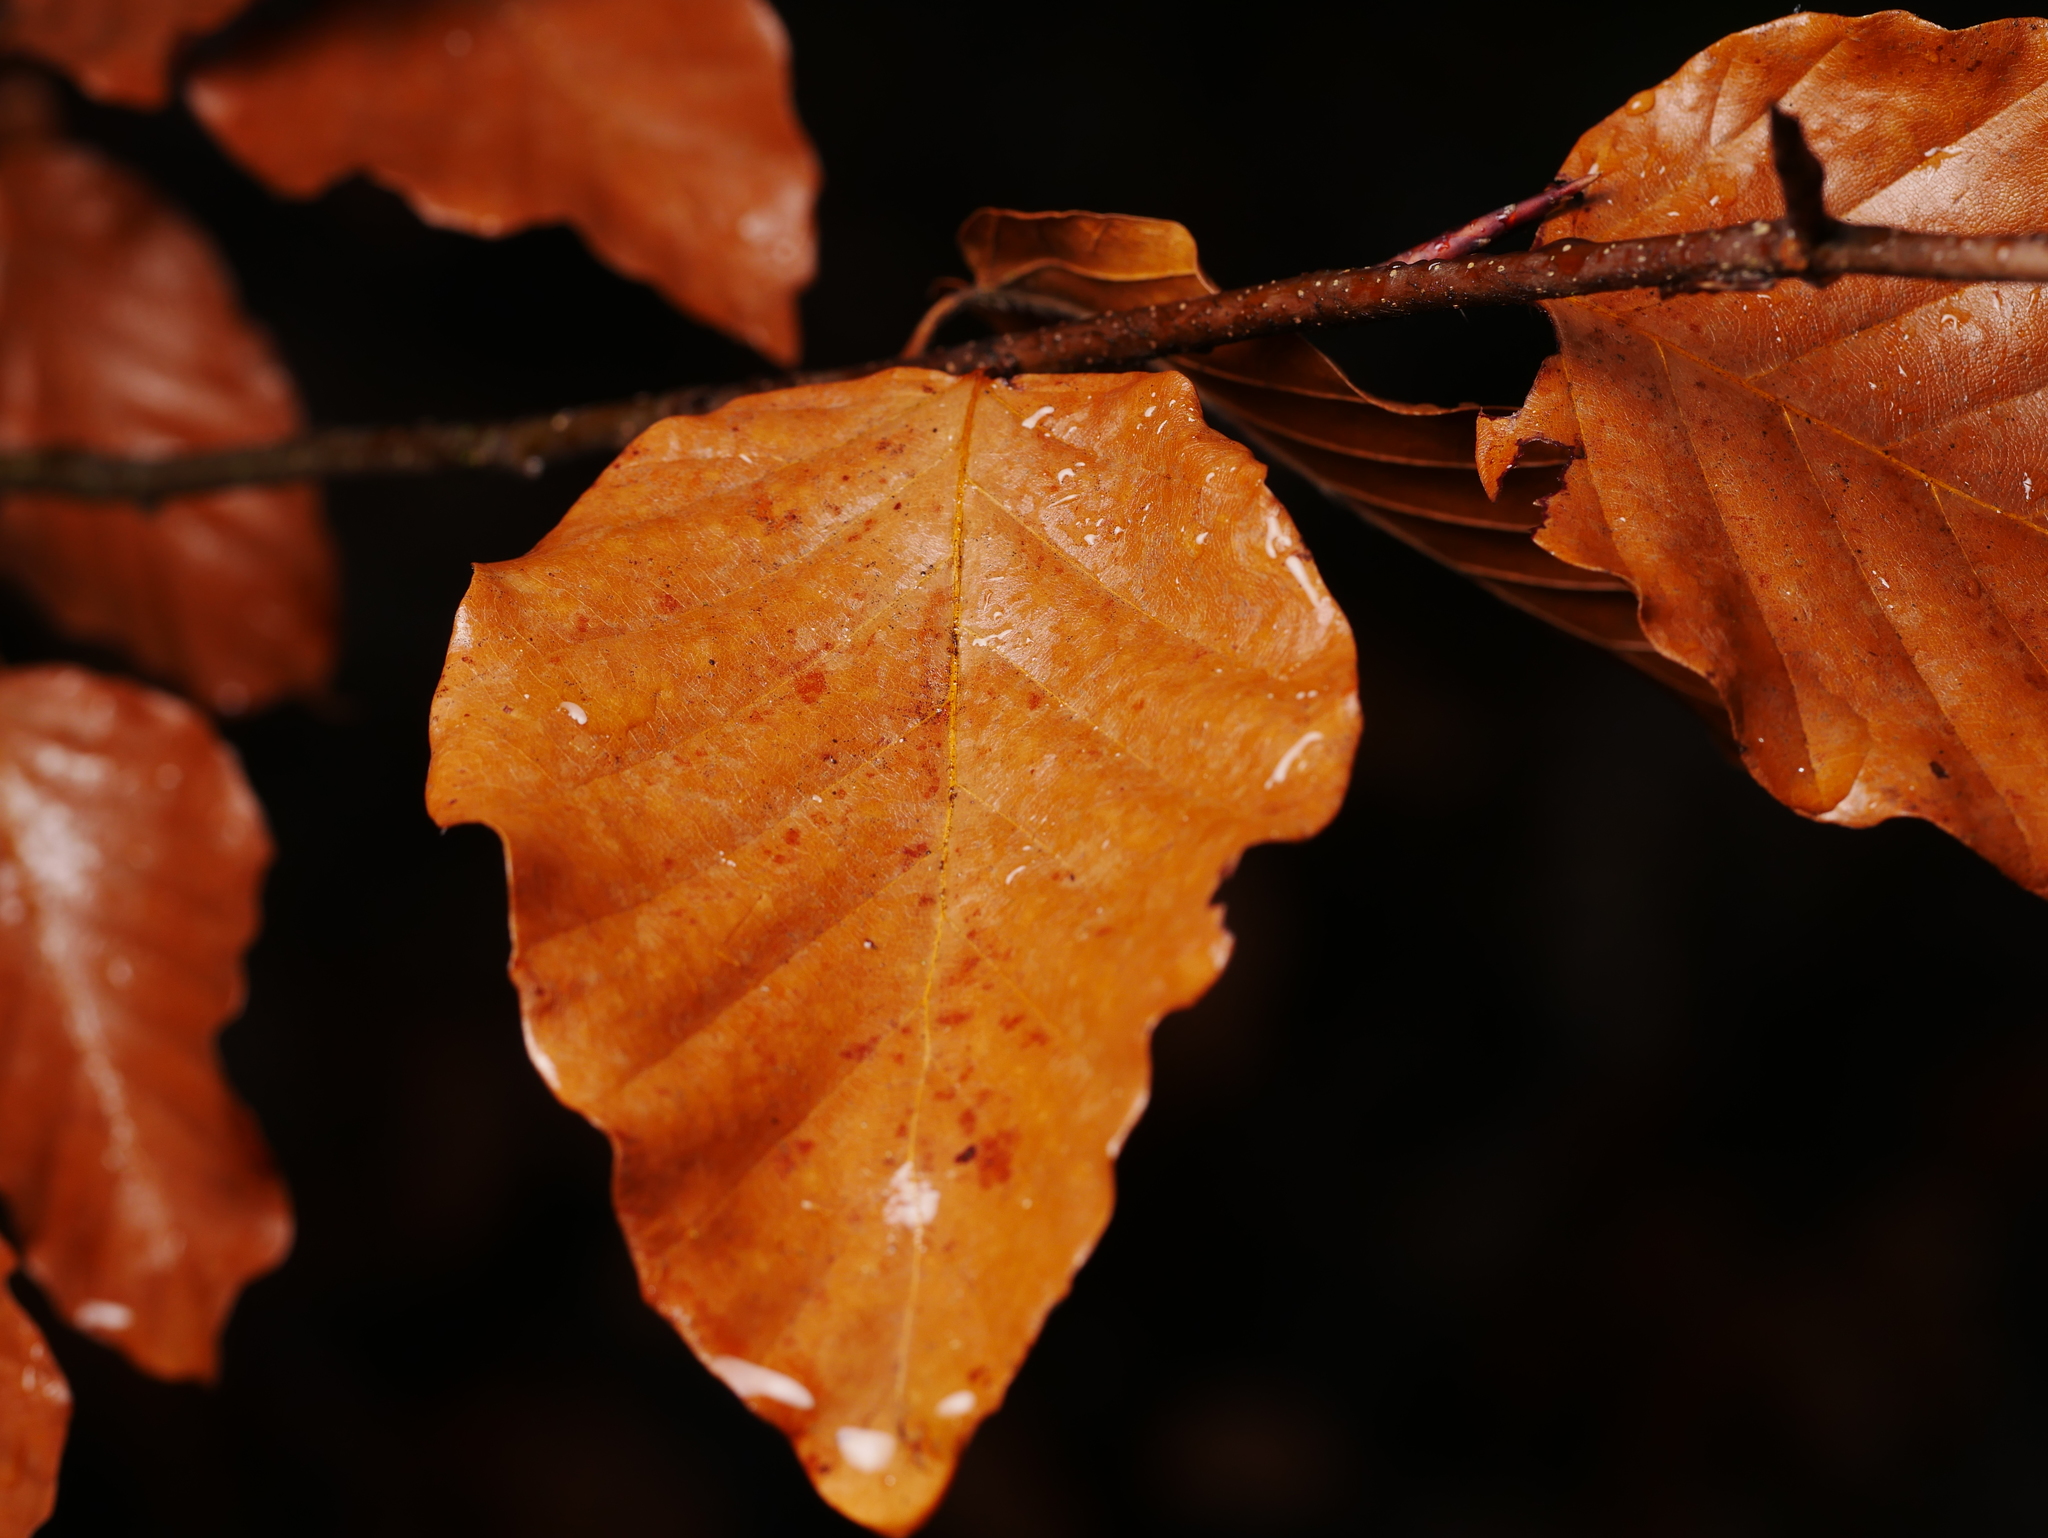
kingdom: Plantae
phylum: Tracheophyta
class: Magnoliopsida
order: Fagales
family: Fagaceae
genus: Fagus
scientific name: Fagus sylvatica
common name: Beech
